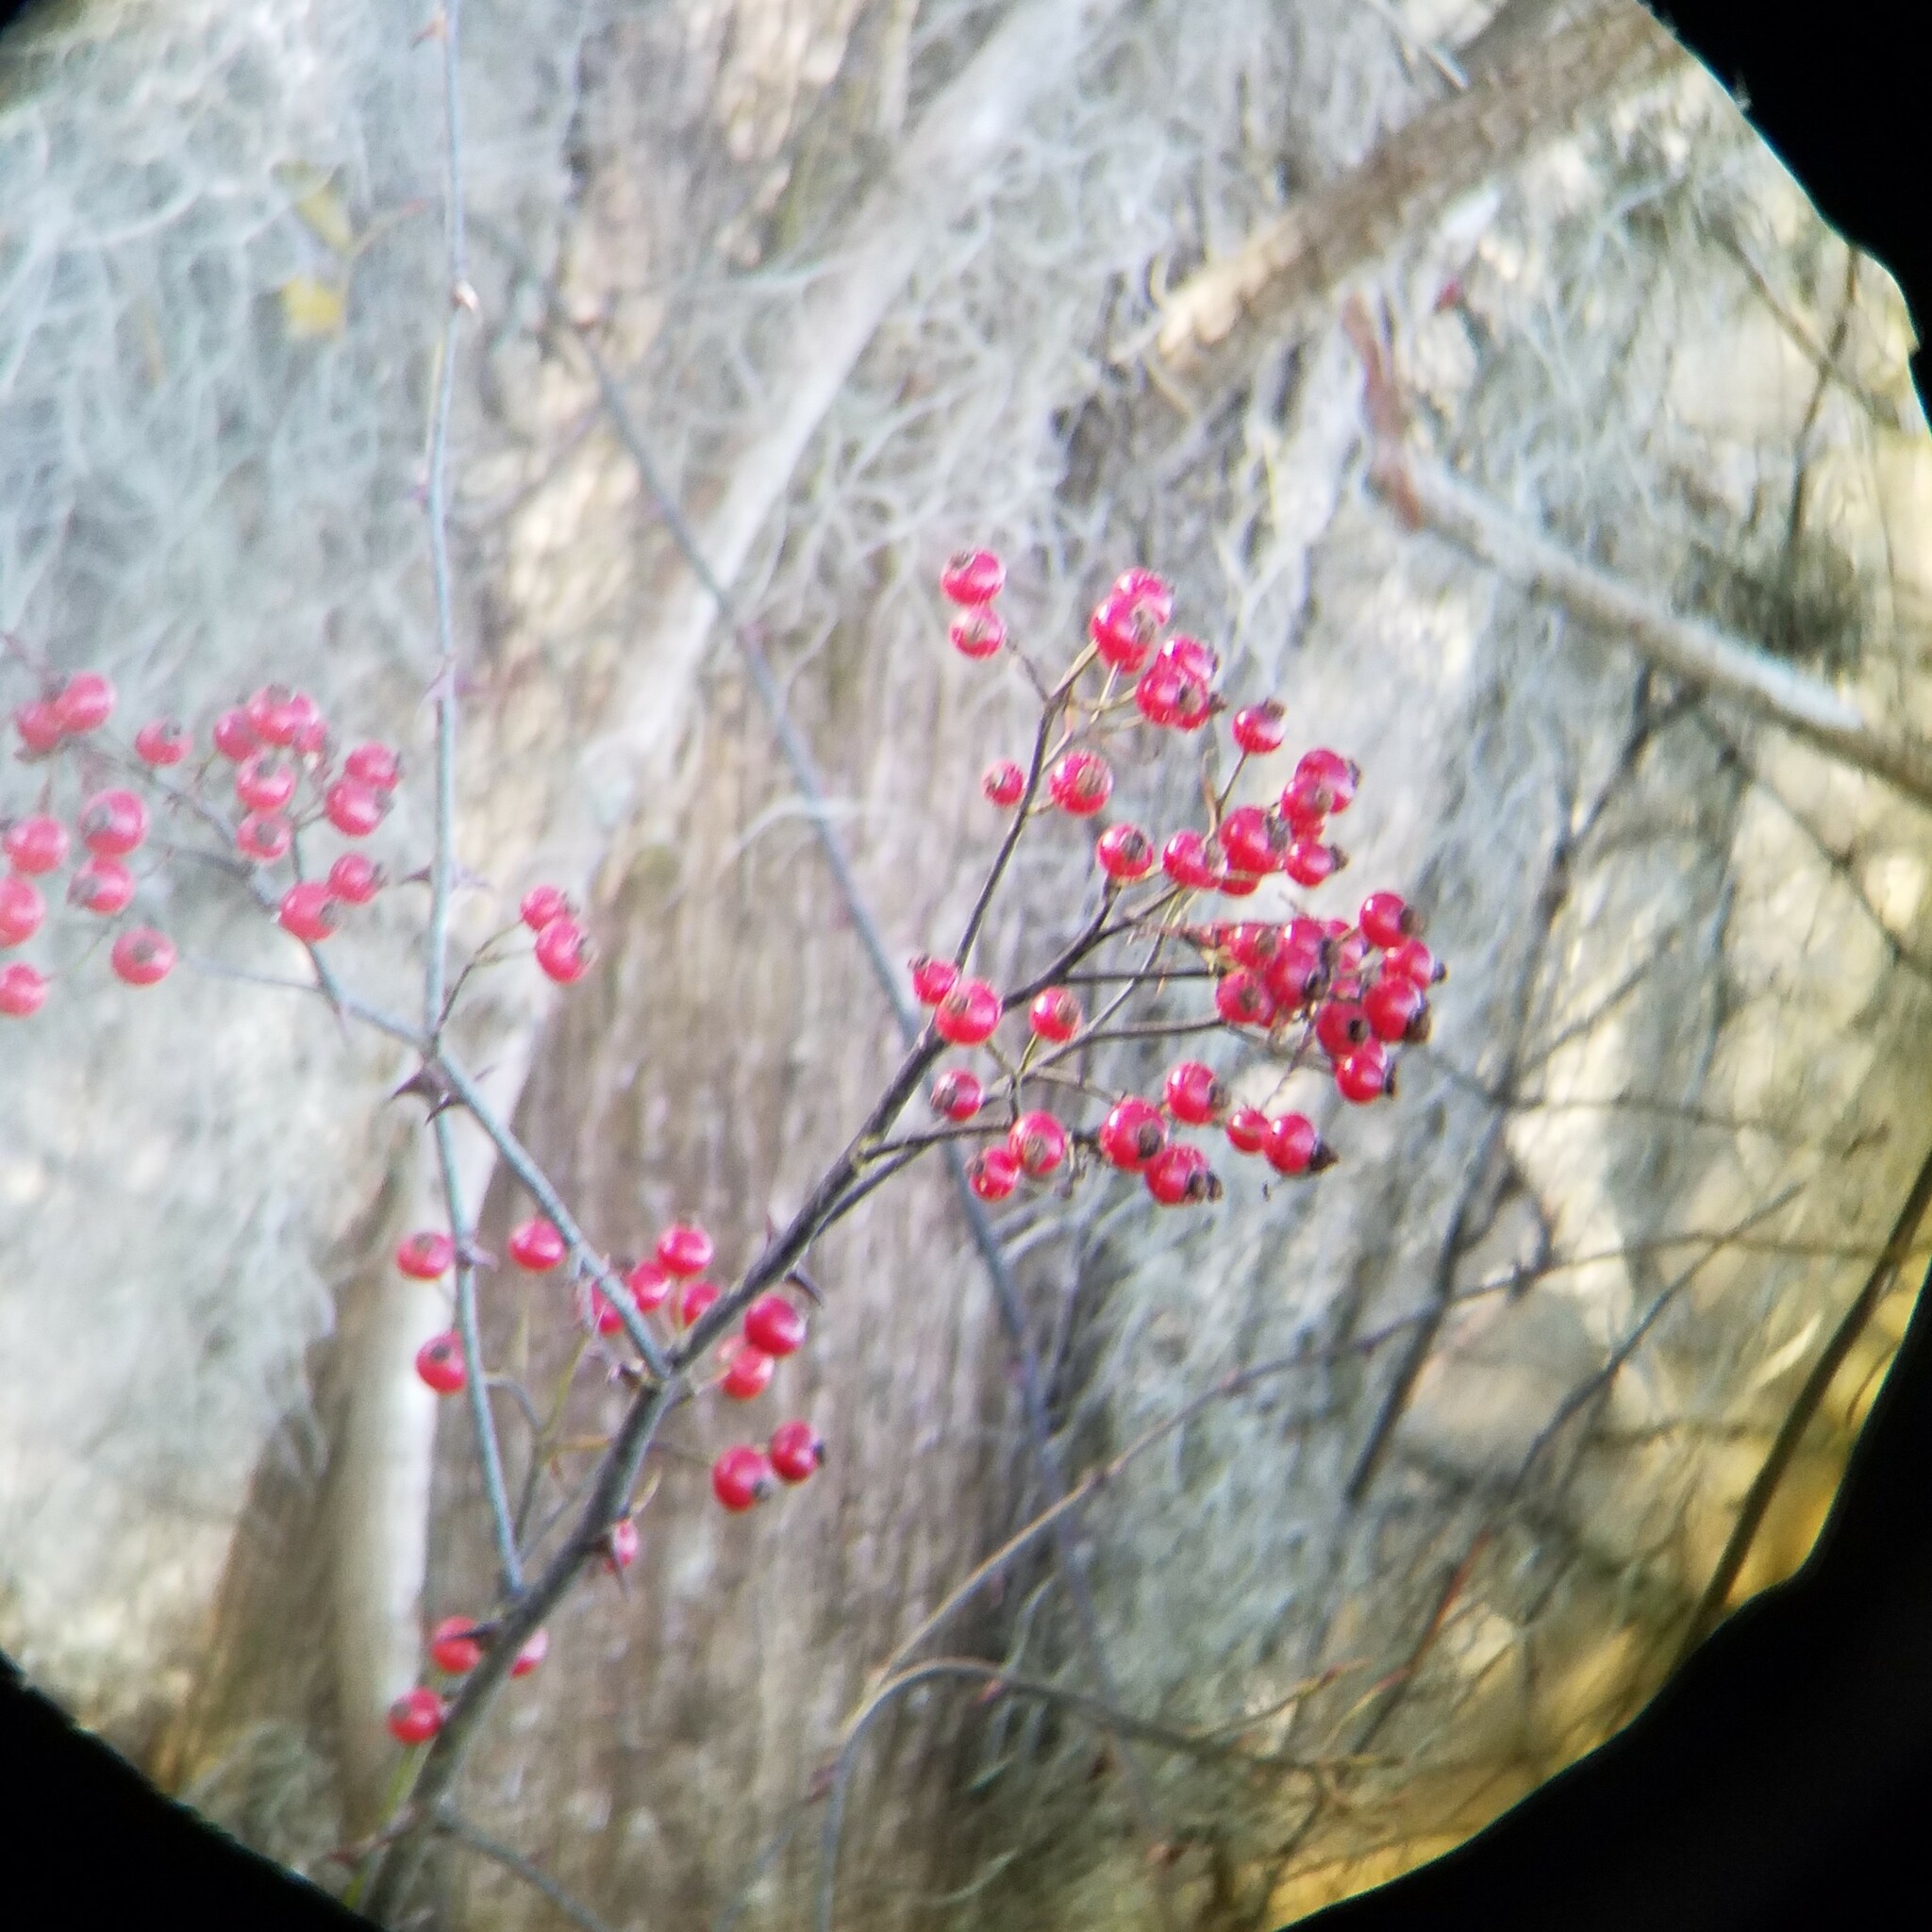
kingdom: Plantae
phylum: Tracheophyta
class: Magnoliopsida
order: Rosales
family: Rosaceae
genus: Rosa
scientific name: Rosa palustris
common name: Swamp rose
